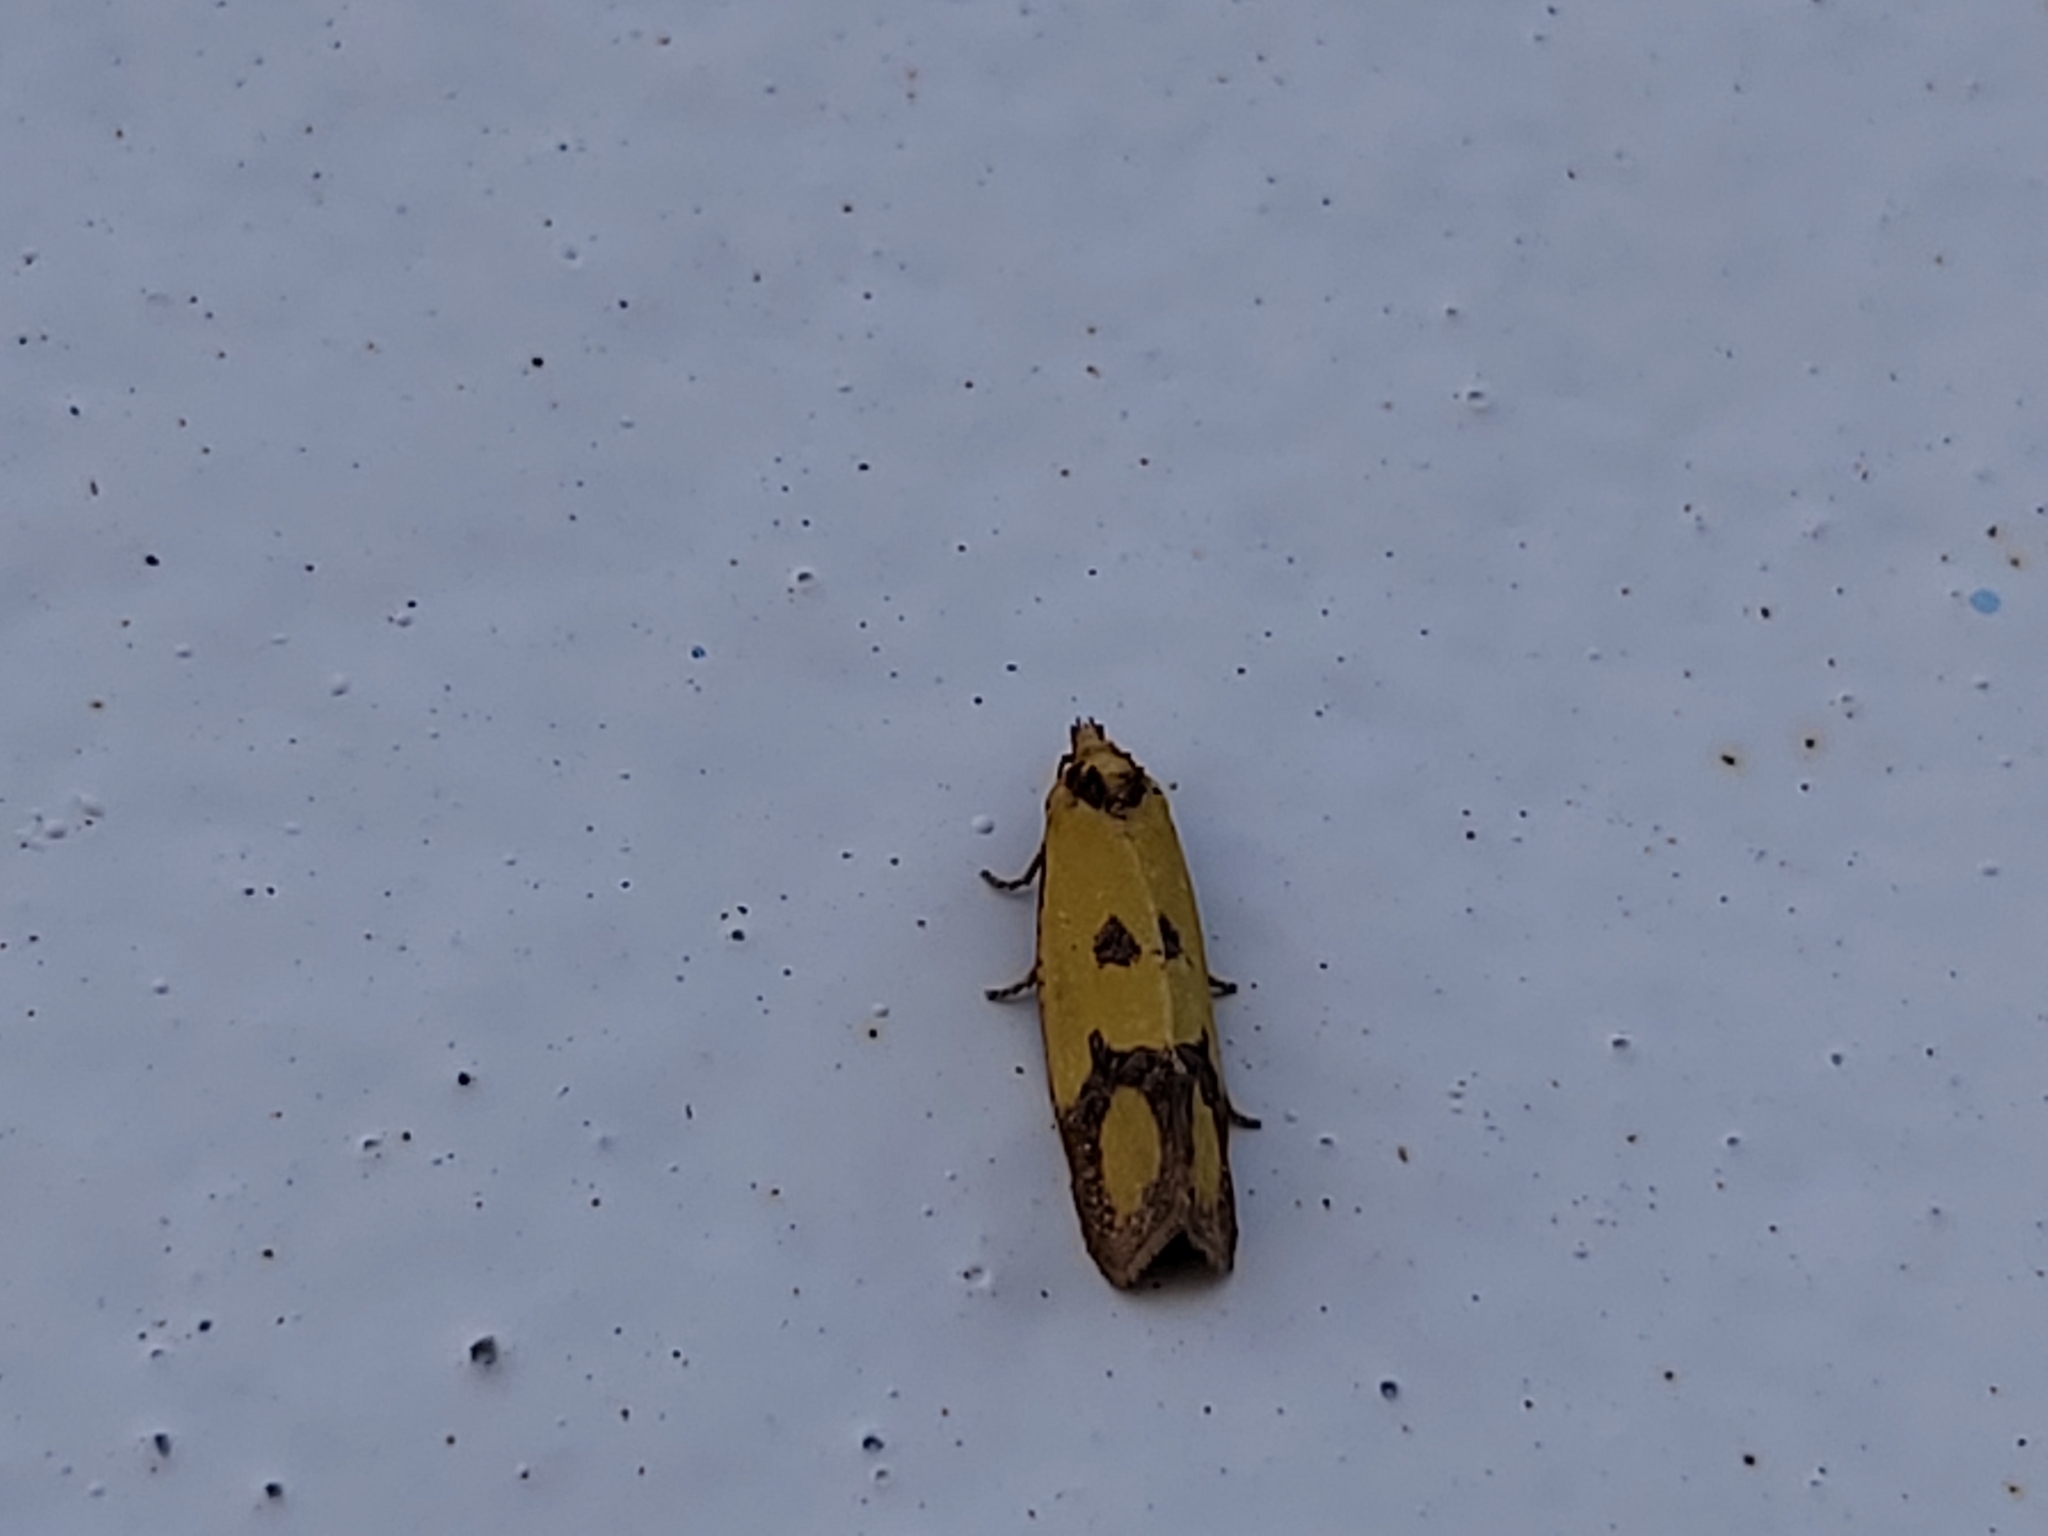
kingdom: Animalia
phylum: Arthropoda
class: Insecta
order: Lepidoptera
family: Tortricidae
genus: Agapeta
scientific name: Agapeta zoegana
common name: Sulfur knapweed root moth
